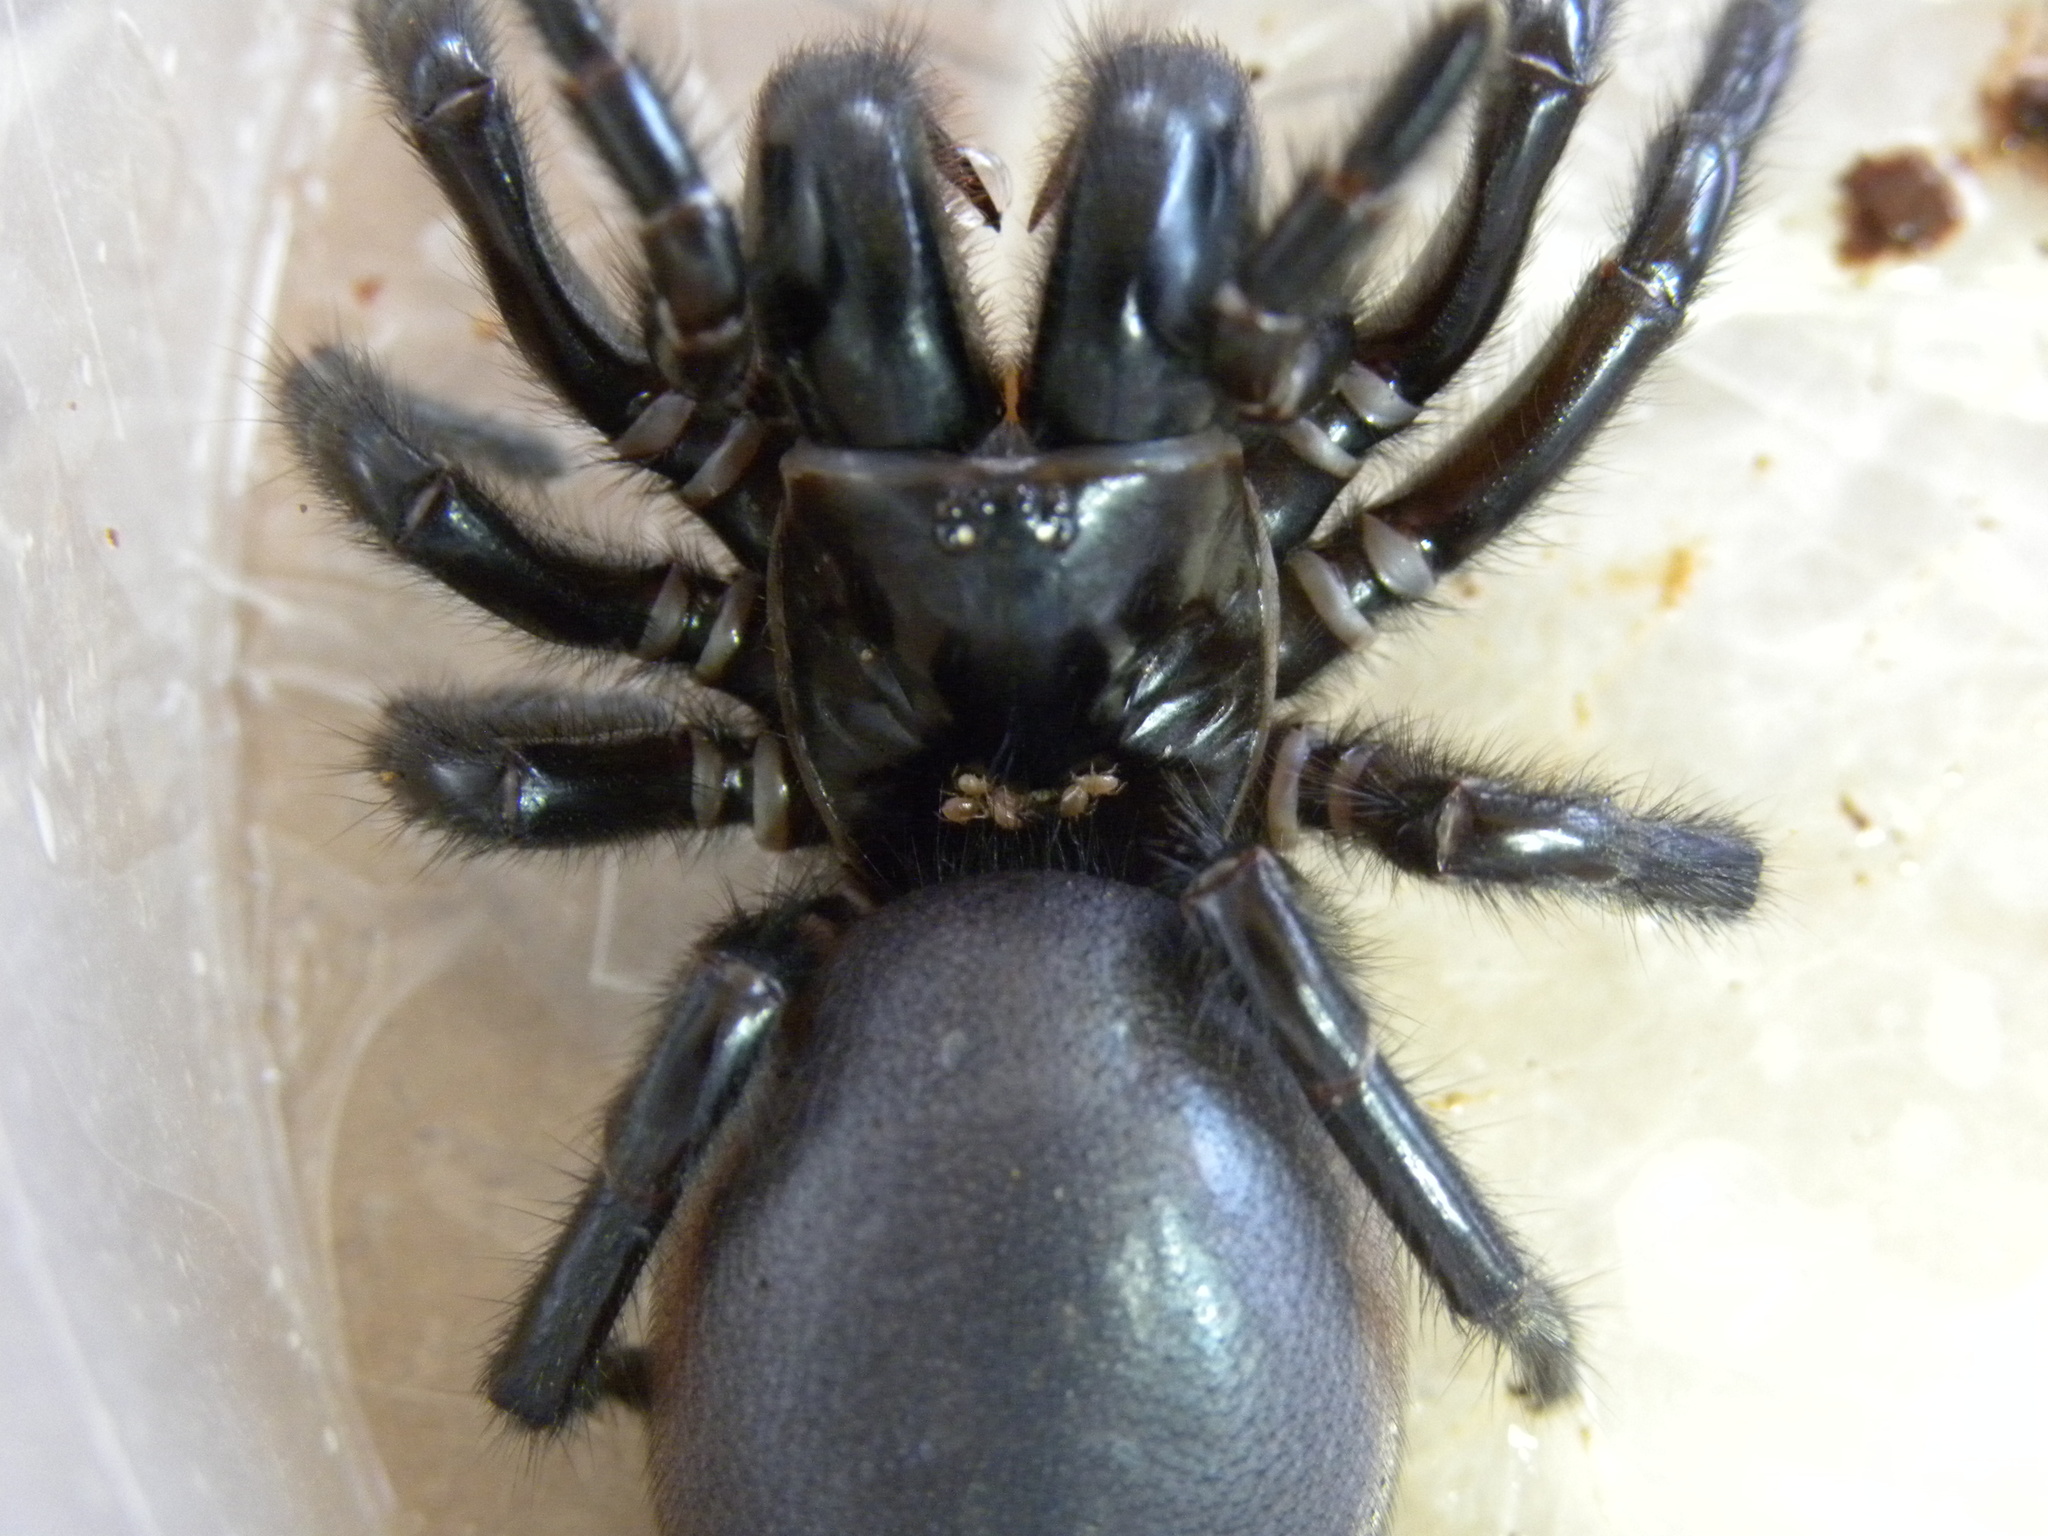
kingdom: Animalia
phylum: Arthropoda
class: Arachnida
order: Araneae
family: Atracidae
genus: Hadronyche
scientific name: Hadronyche cerberea
